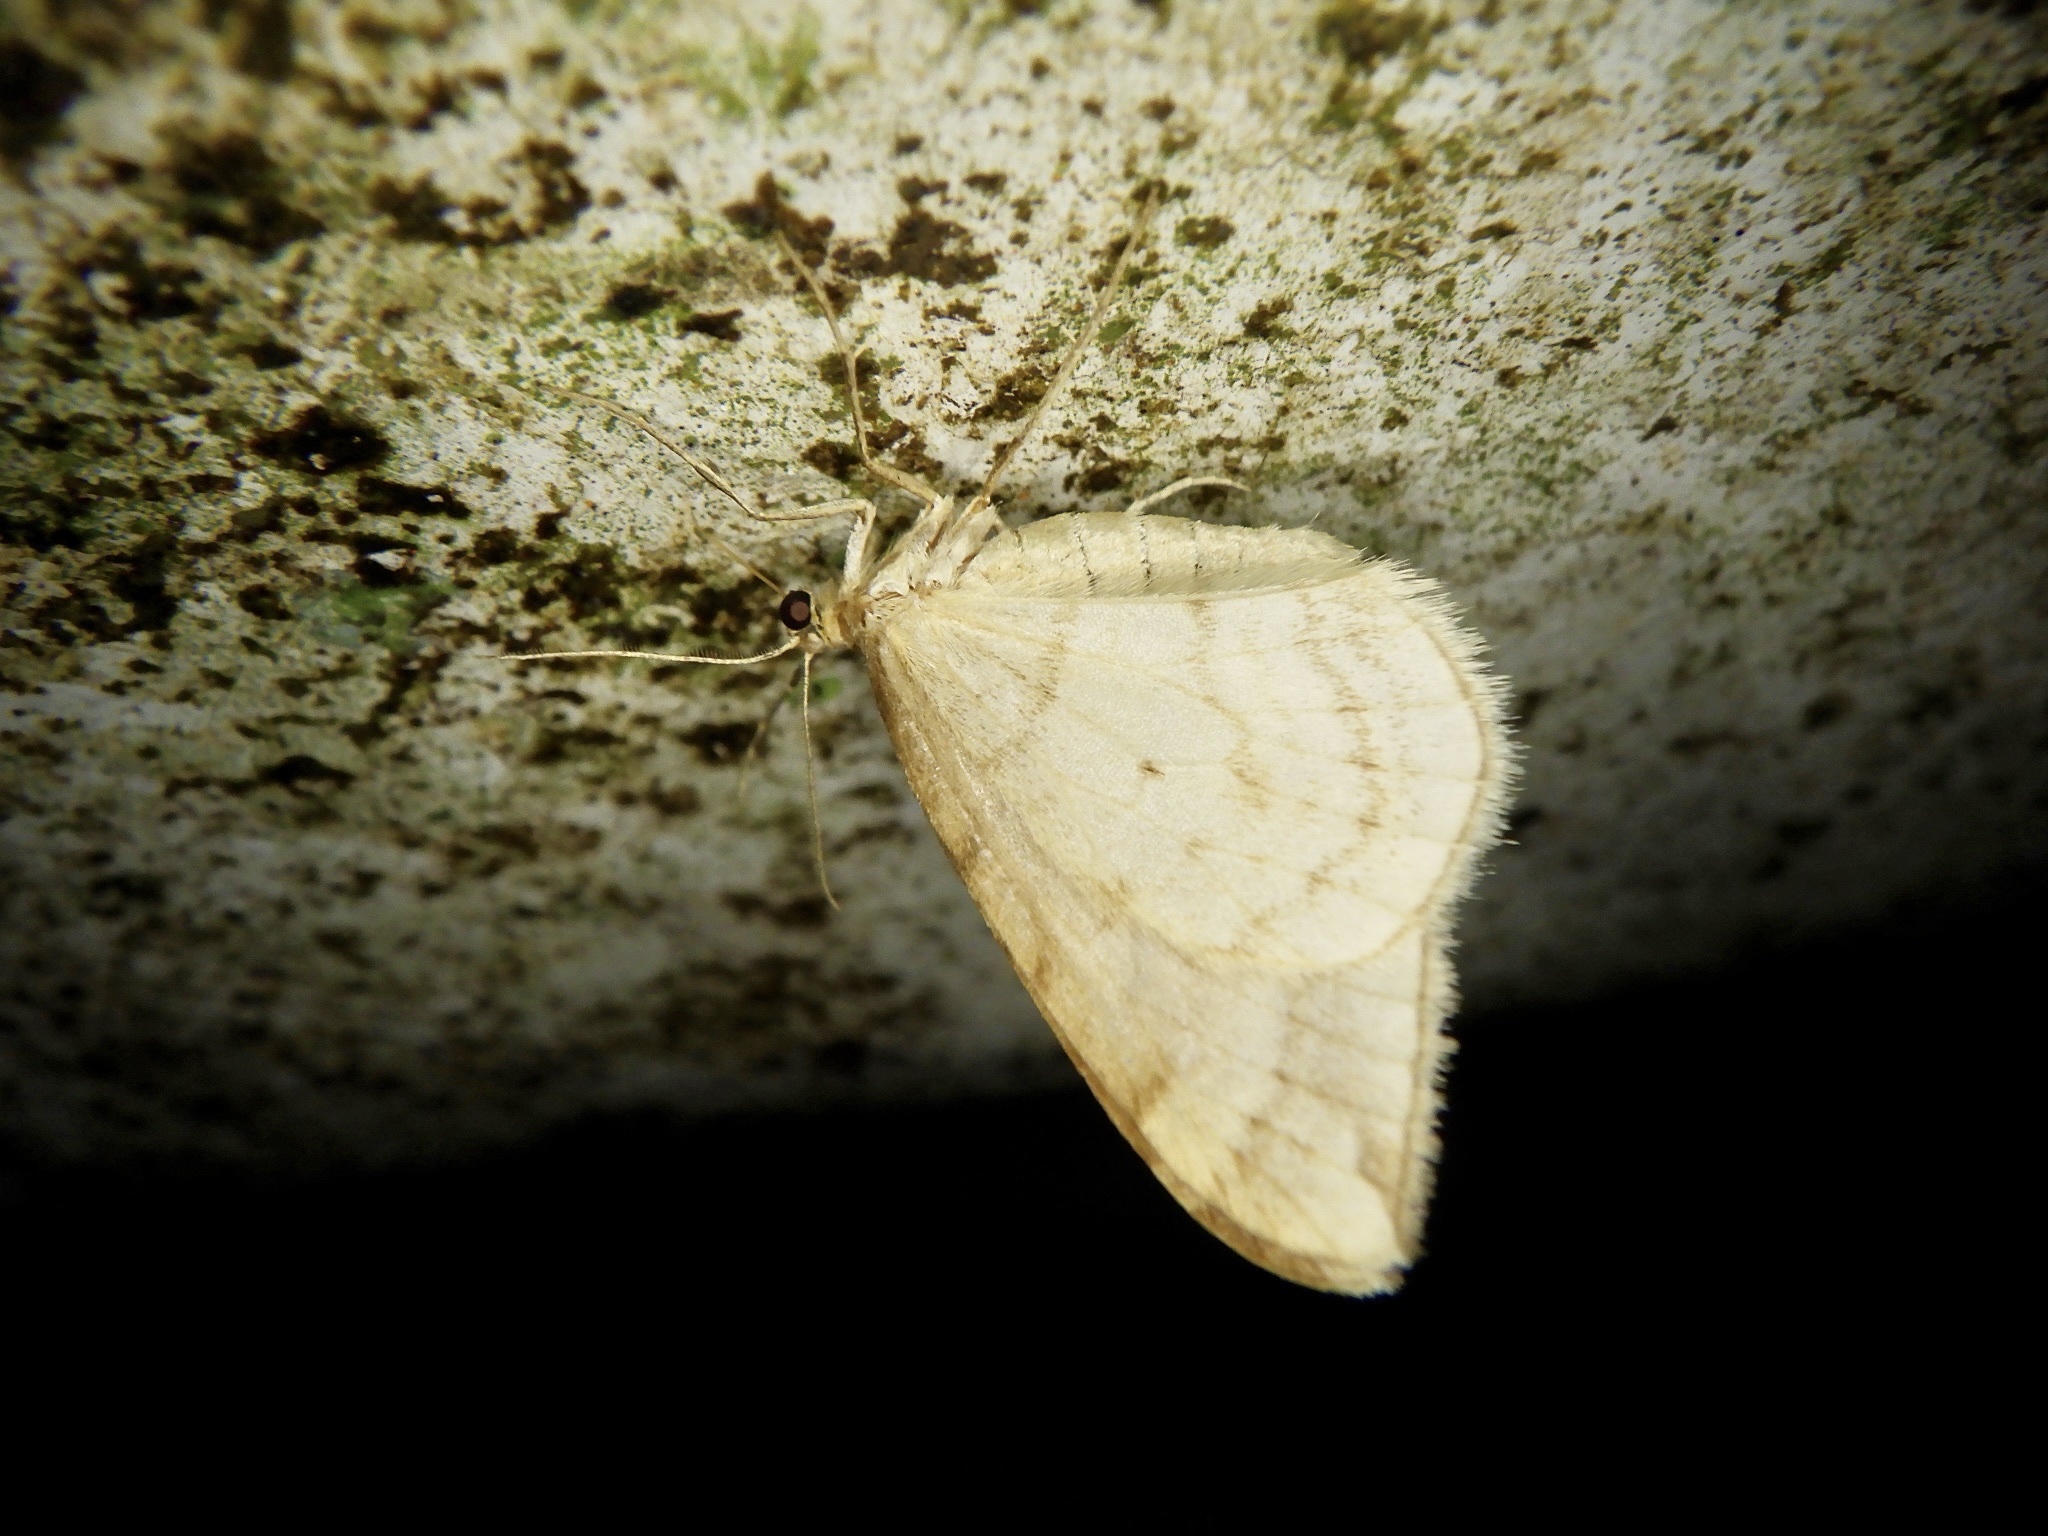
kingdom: Animalia
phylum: Arthropoda
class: Insecta
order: Lepidoptera
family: Geometridae
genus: Nothoporinia
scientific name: Nothoporinia mediolineata
